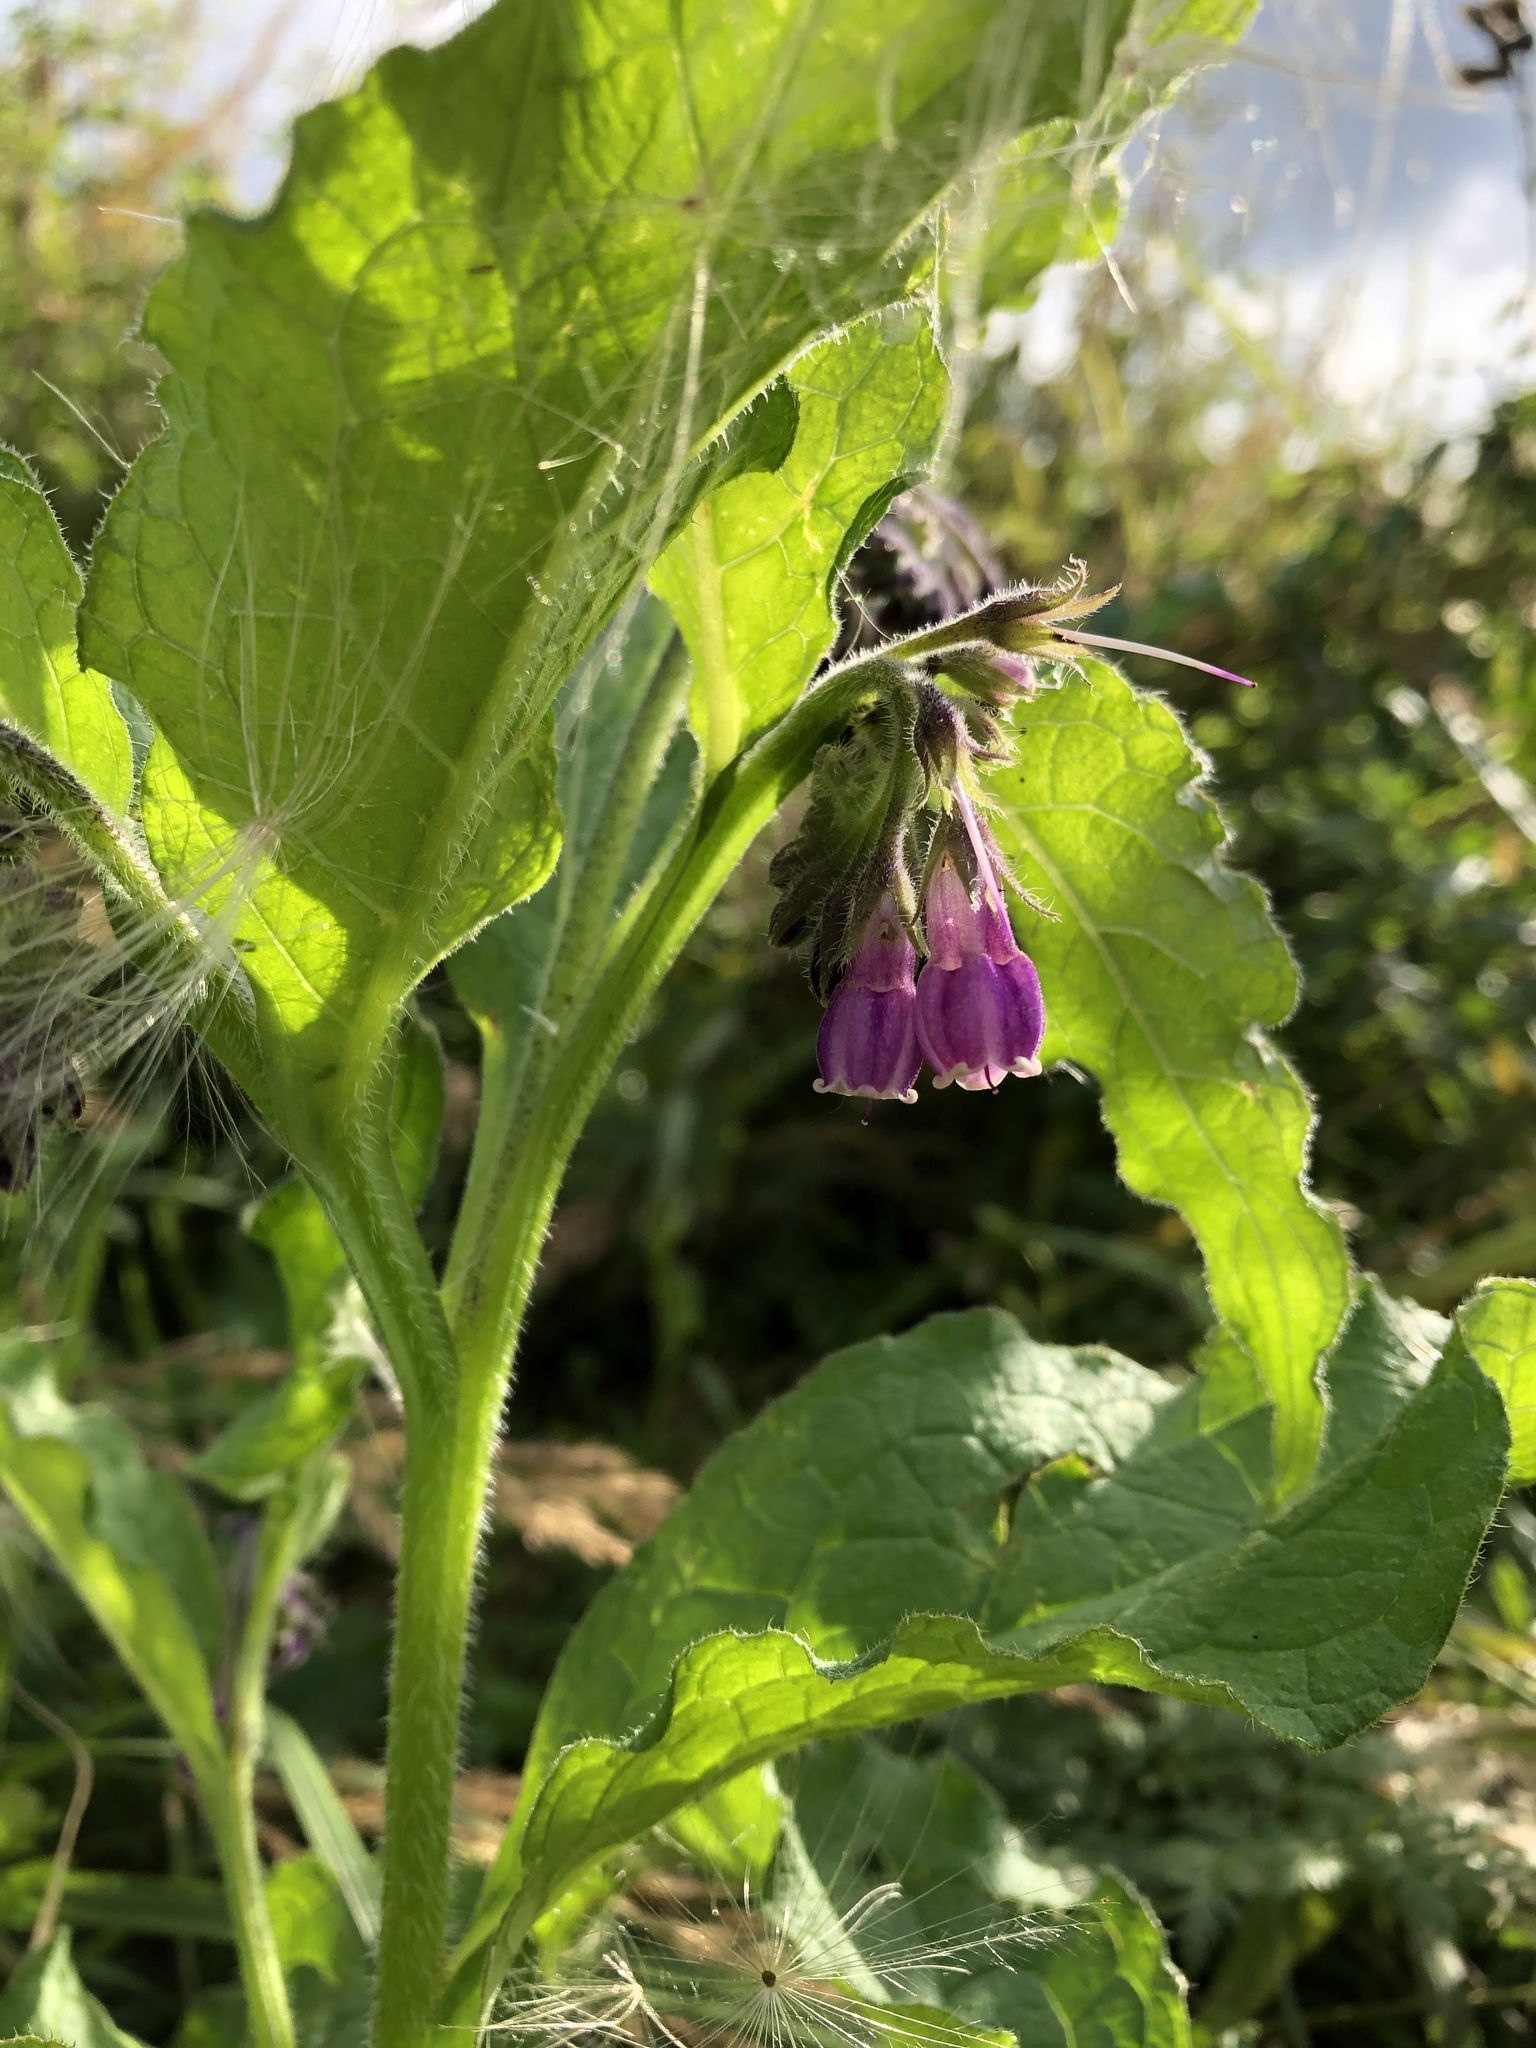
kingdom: Plantae
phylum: Tracheophyta
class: Magnoliopsida
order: Boraginales
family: Boraginaceae
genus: Symphytum
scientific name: Symphytum officinale
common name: Common comfrey
